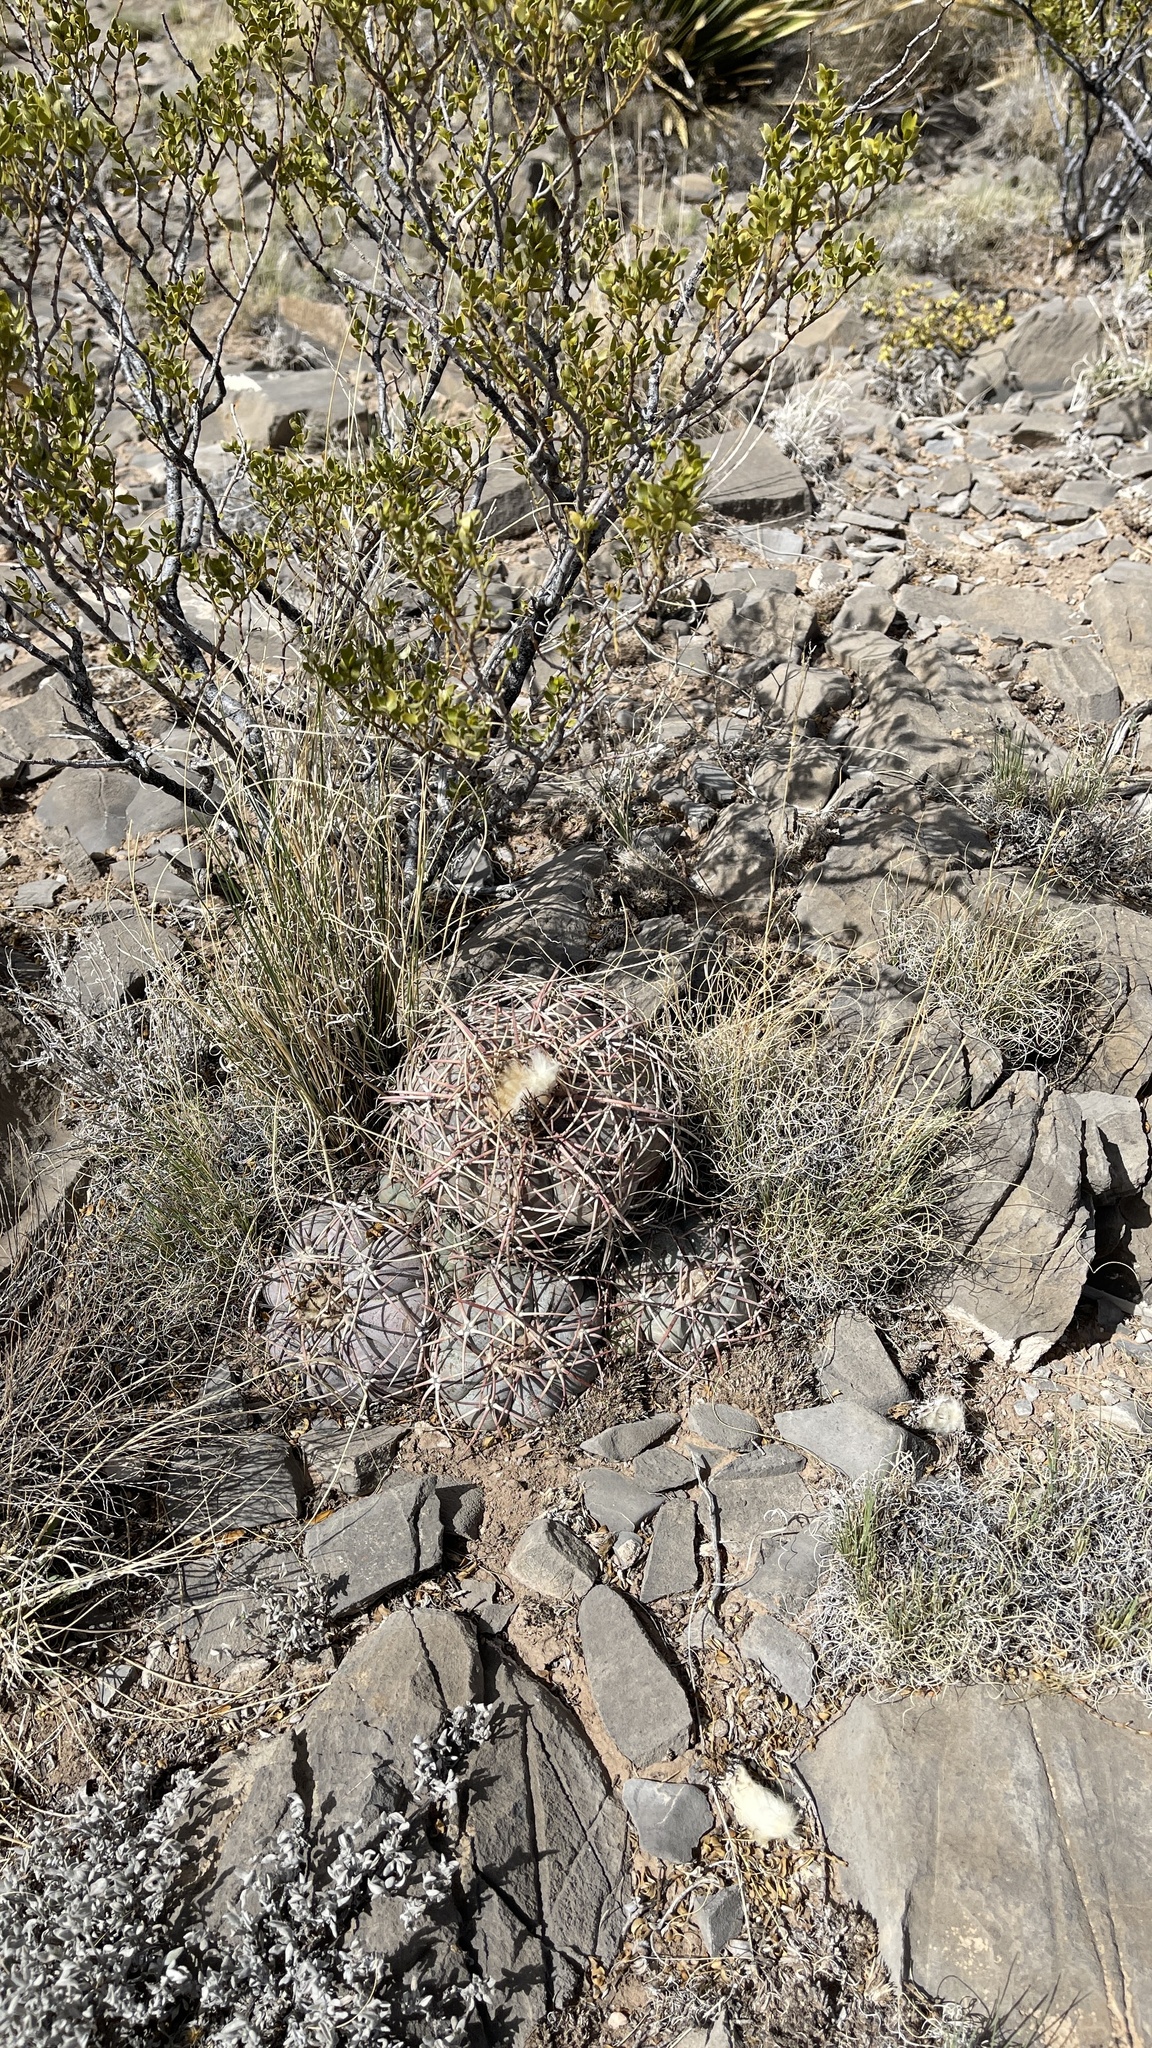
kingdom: Plantae
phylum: Tracheophyta
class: Magnoliopsida
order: Caryophyllales
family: Cactaceae
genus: Echinocactus
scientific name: Echinocactus horizonthalonius
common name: Devilshead
